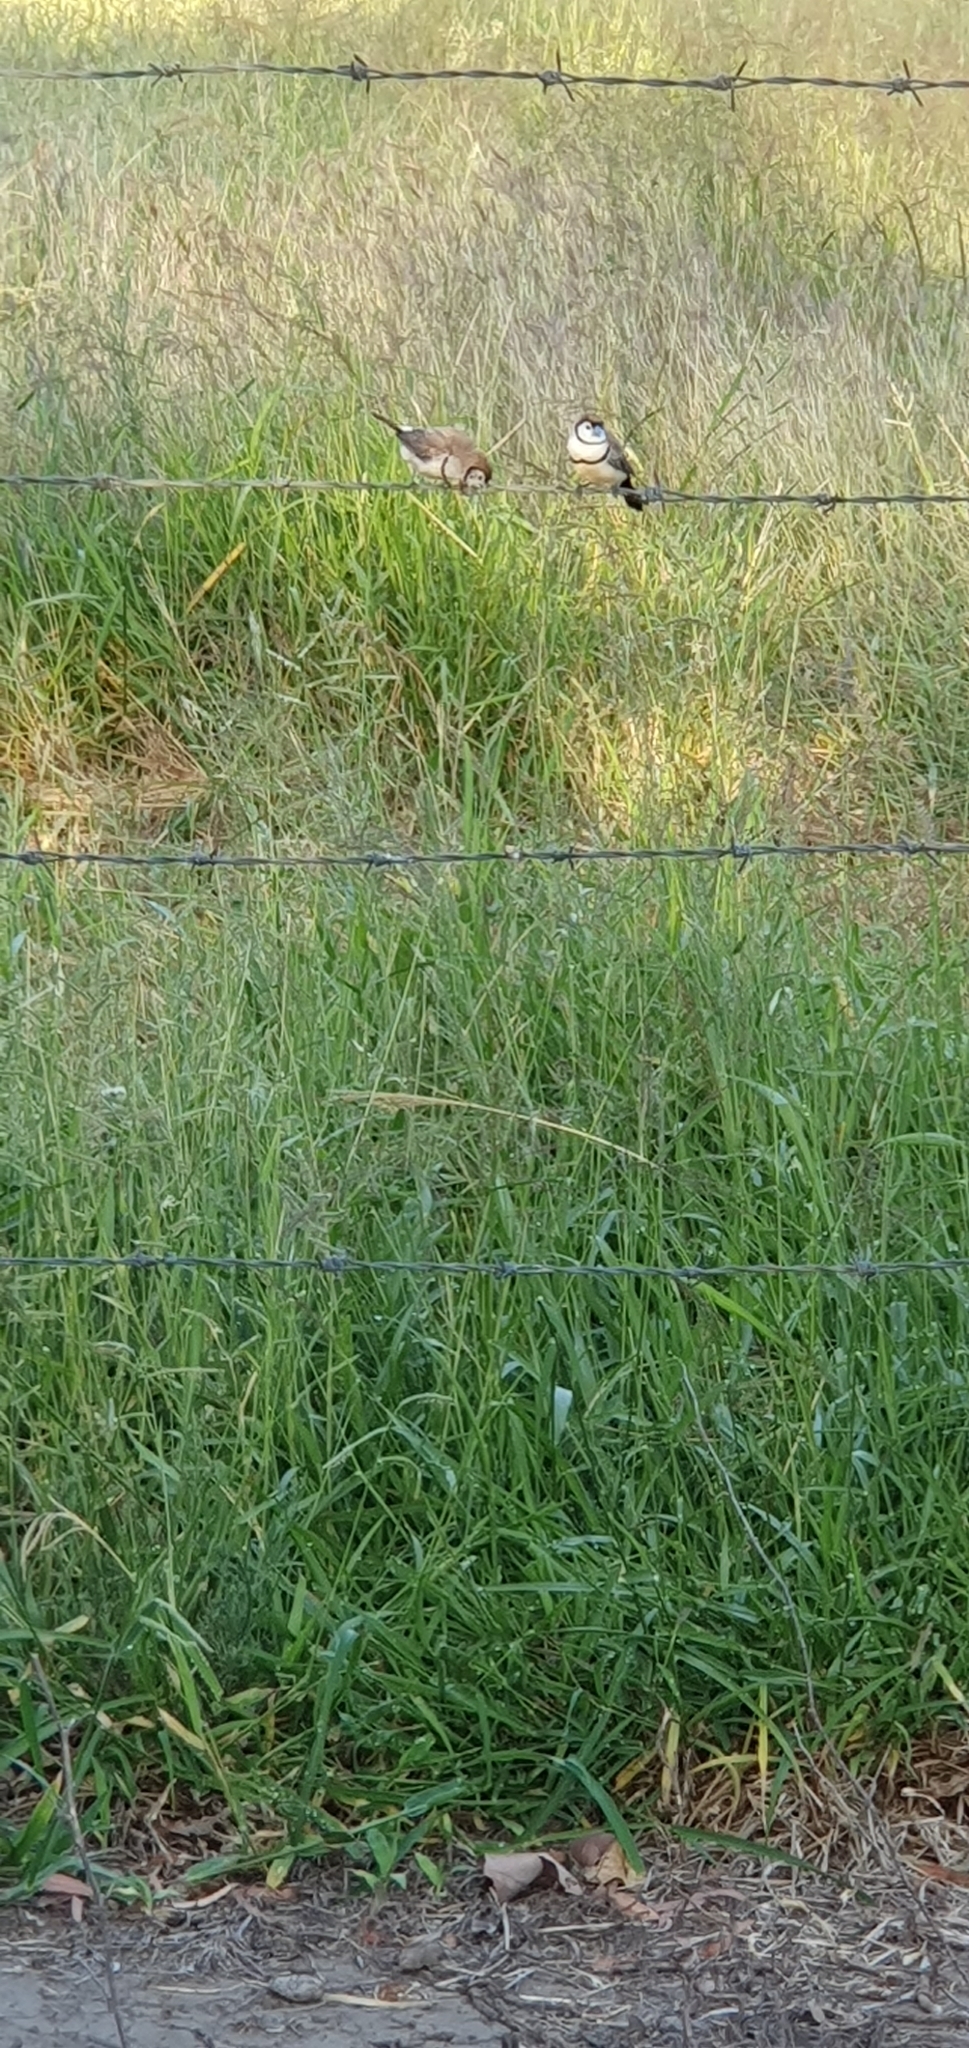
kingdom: Animalia
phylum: Chordata
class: Aves
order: Passeriformes
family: Estrildidae
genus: Taeniopygia
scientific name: Taeniopygia bichenovii
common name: Double-barred finch
